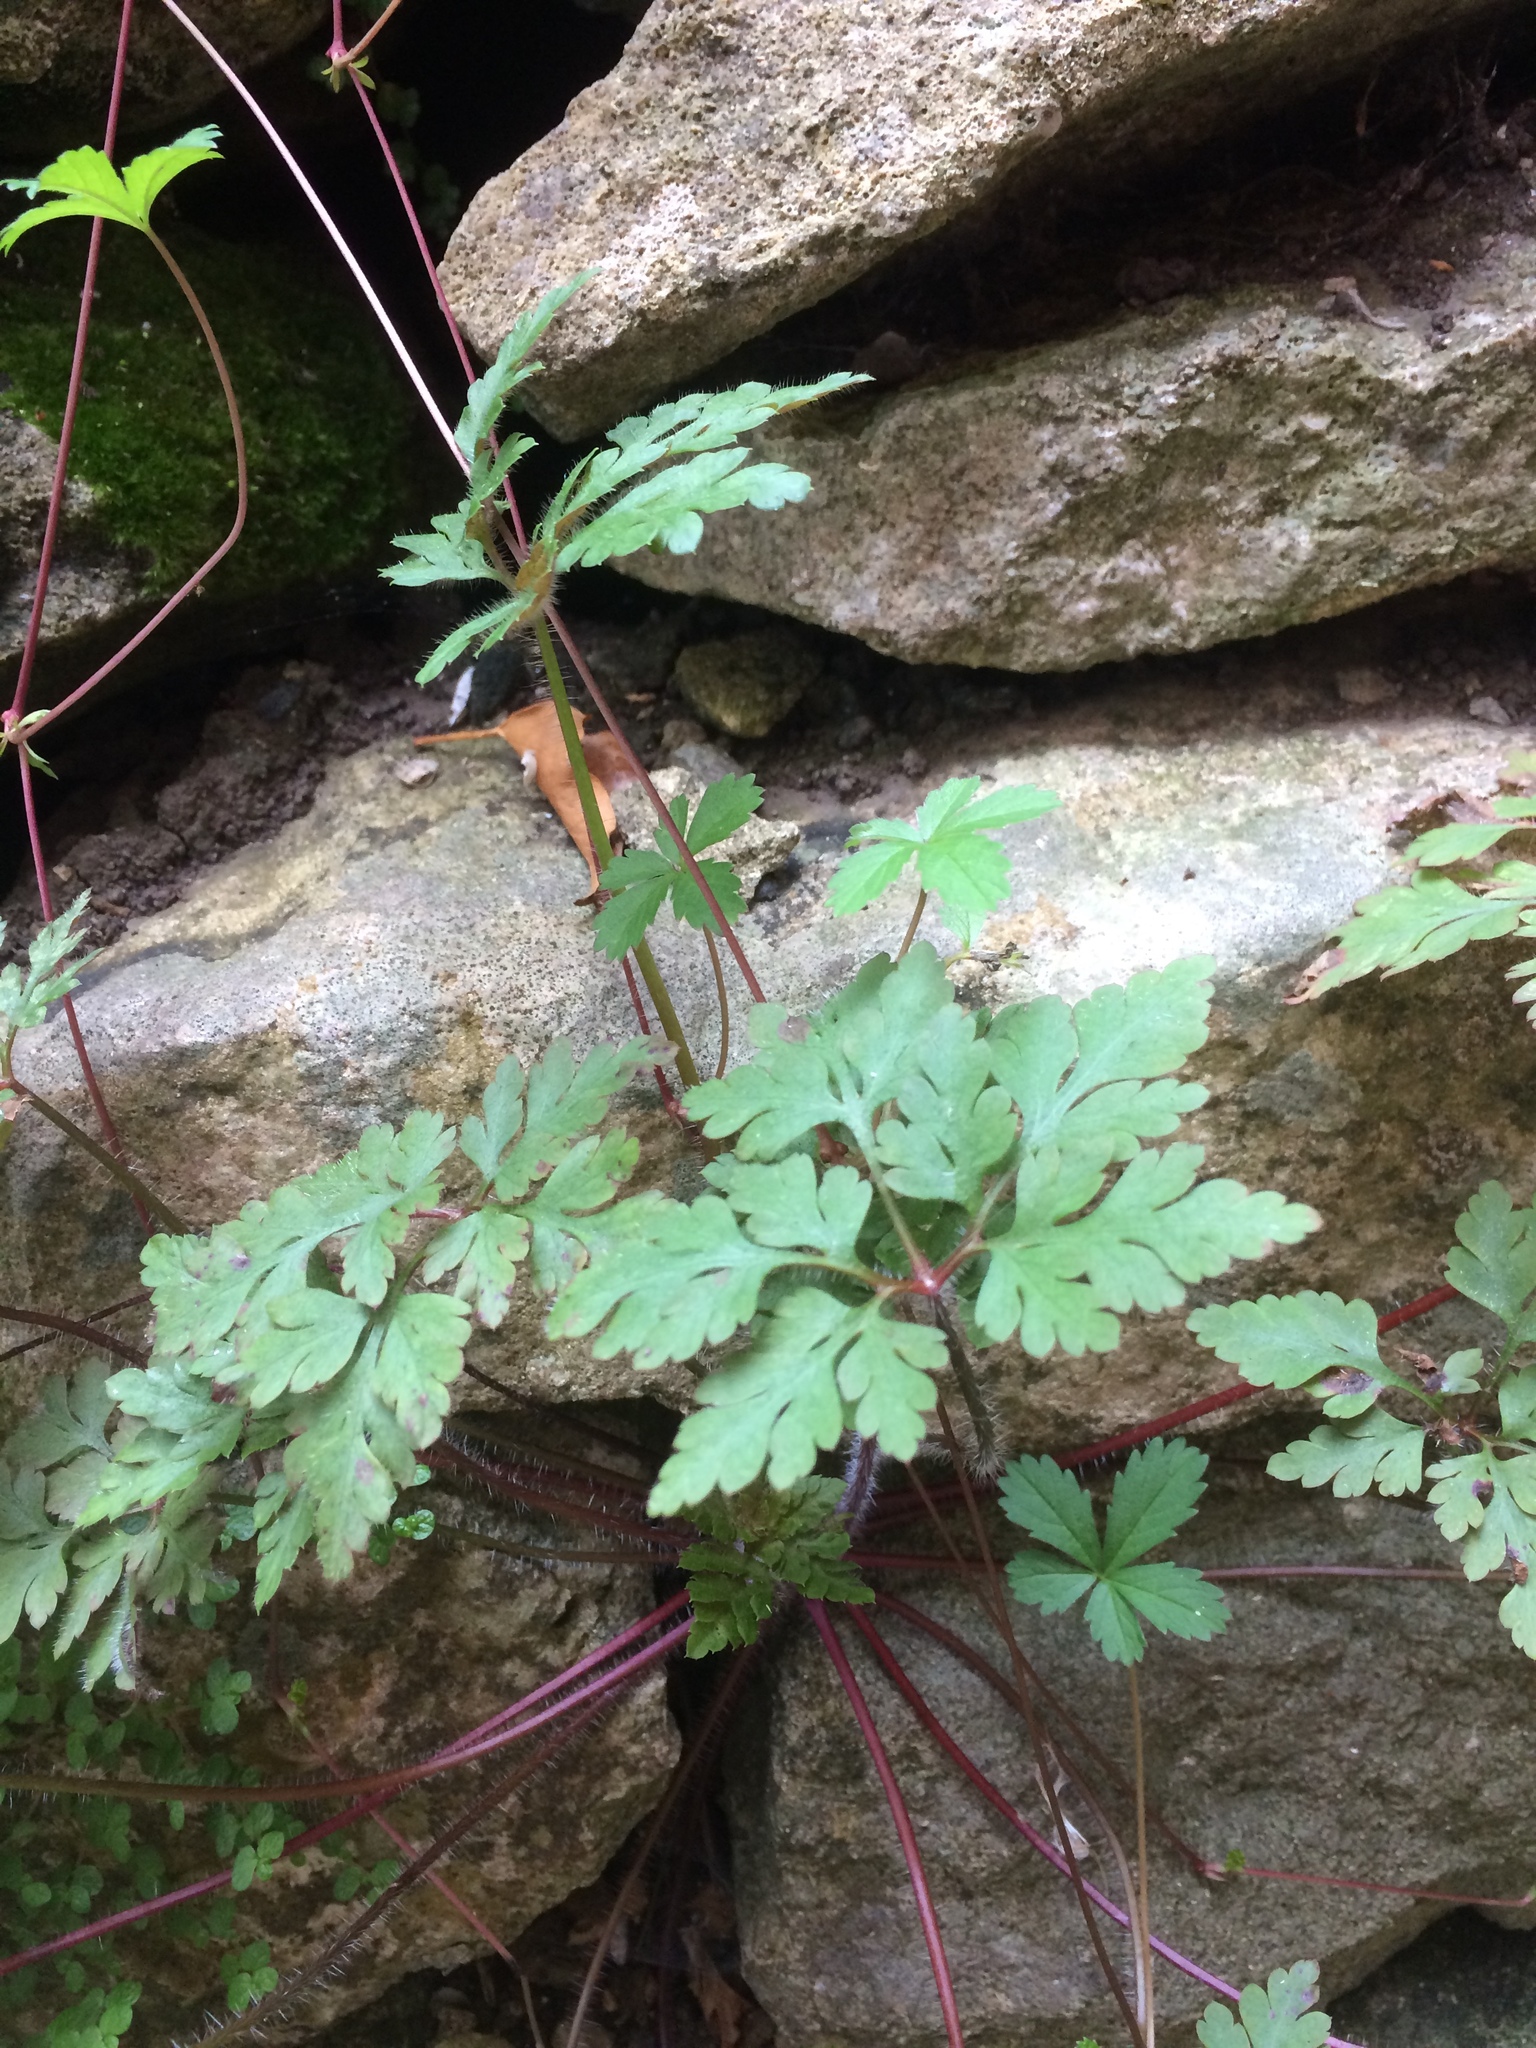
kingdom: Plantae
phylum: Tracheophyta
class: Magnoliopsida
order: Geraniales
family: Geraniaceae
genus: Geranium
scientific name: Geranium robertianum
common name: Herb-robert
